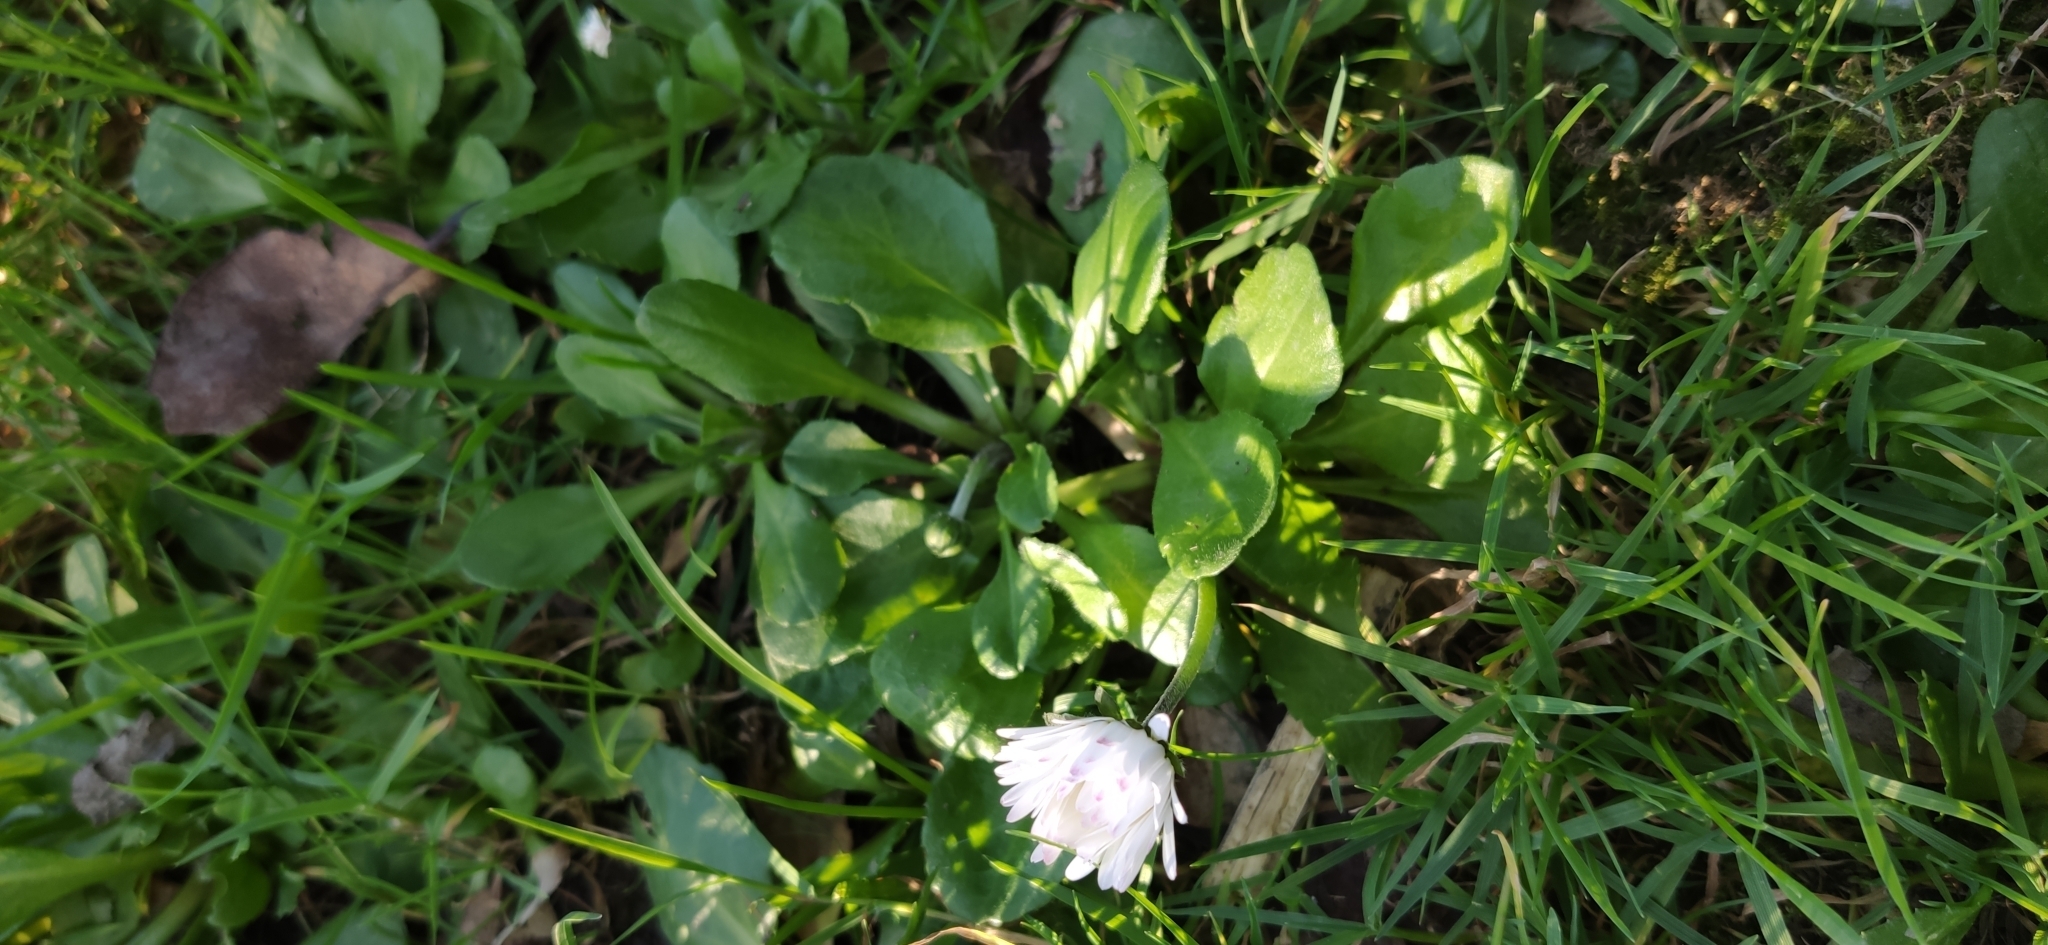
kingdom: Plantae
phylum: Tracheophyta
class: Magnoliopsida
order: Asterales
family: Asteraceae
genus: Bellis
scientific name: Bellis perennis
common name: Lawndaisy
